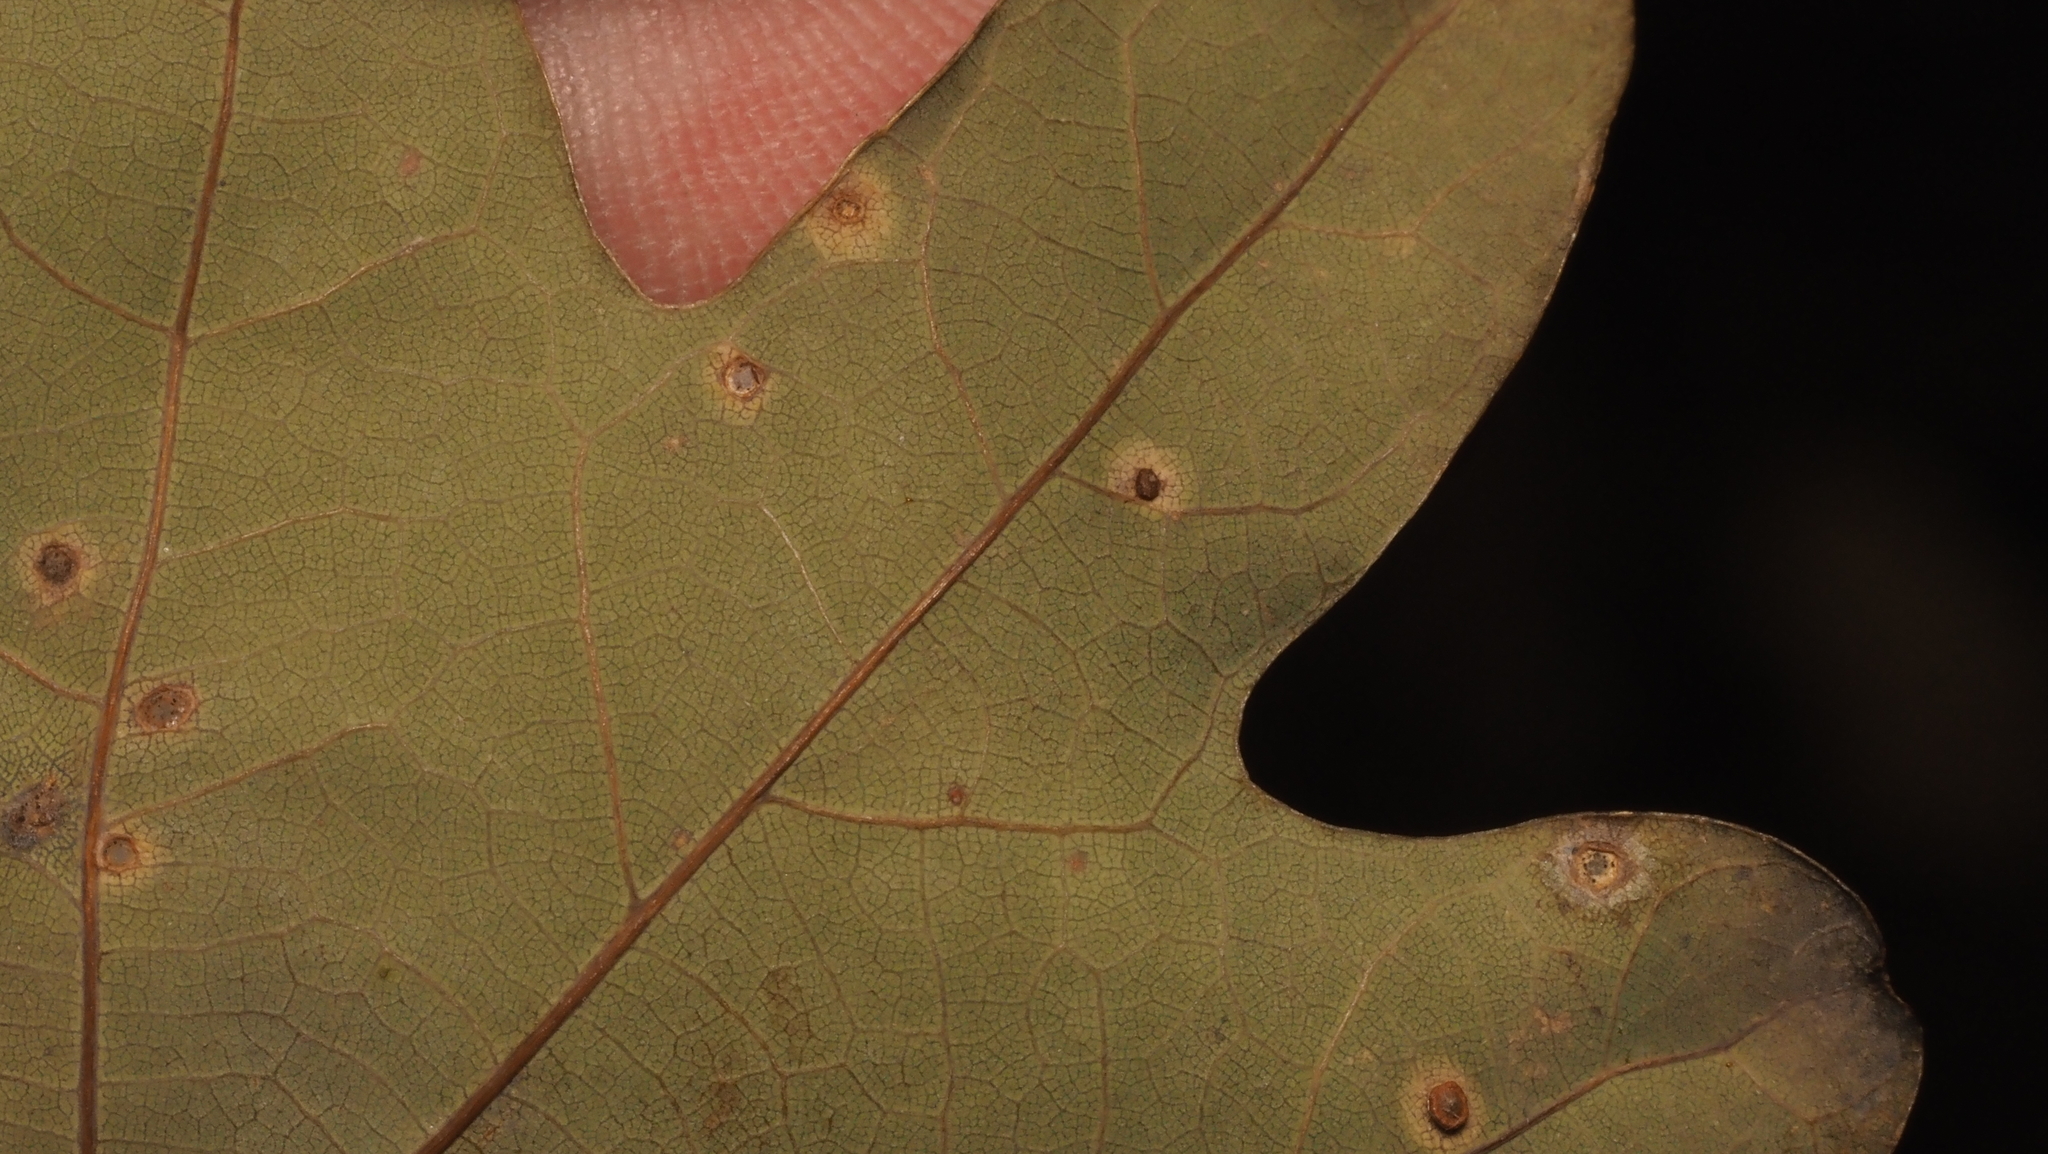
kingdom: Animalia
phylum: Arthropoda
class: Insecta
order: Hymenoptera
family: Cynipidae
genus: Neuroterus
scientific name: Neuroterus
